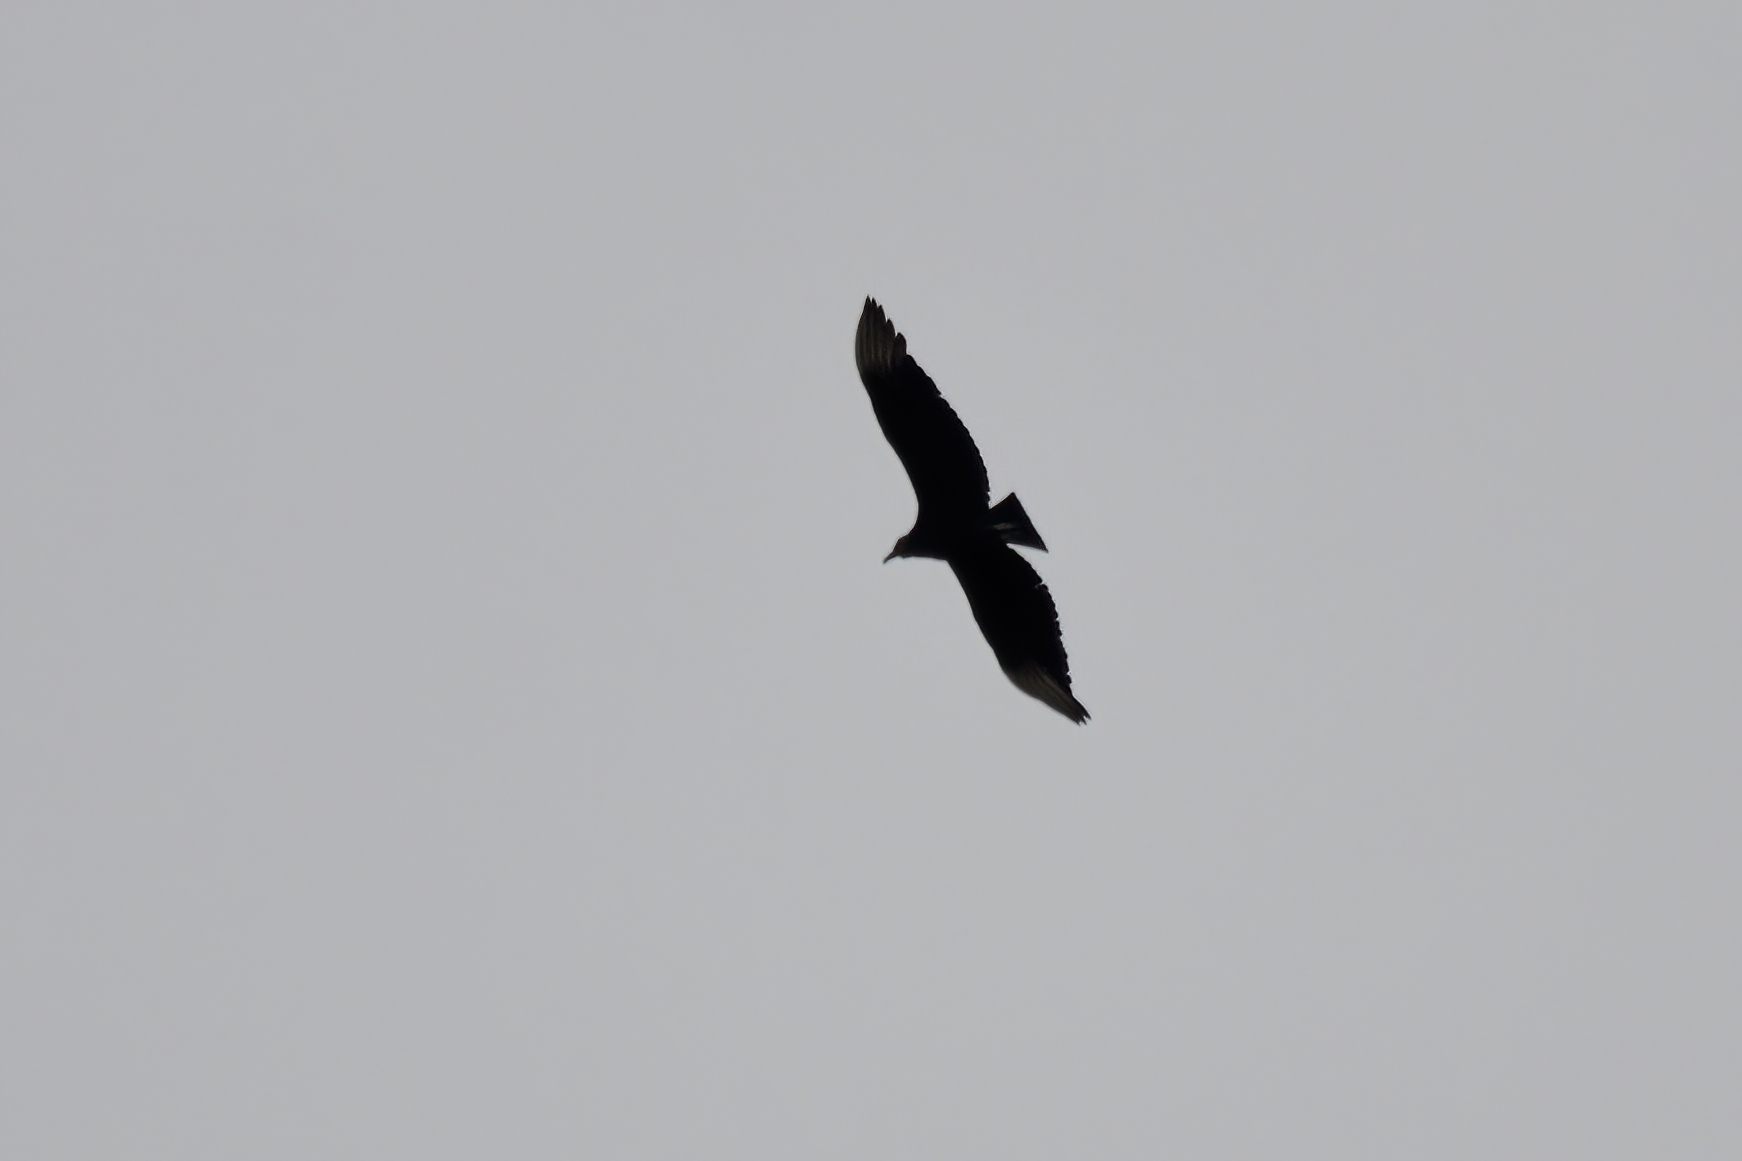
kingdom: Animalia
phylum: Chordata
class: Aves
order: Accipitriformes
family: Cathartidae
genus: Coragyps
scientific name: Coragyps atratus
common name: Black vulture
